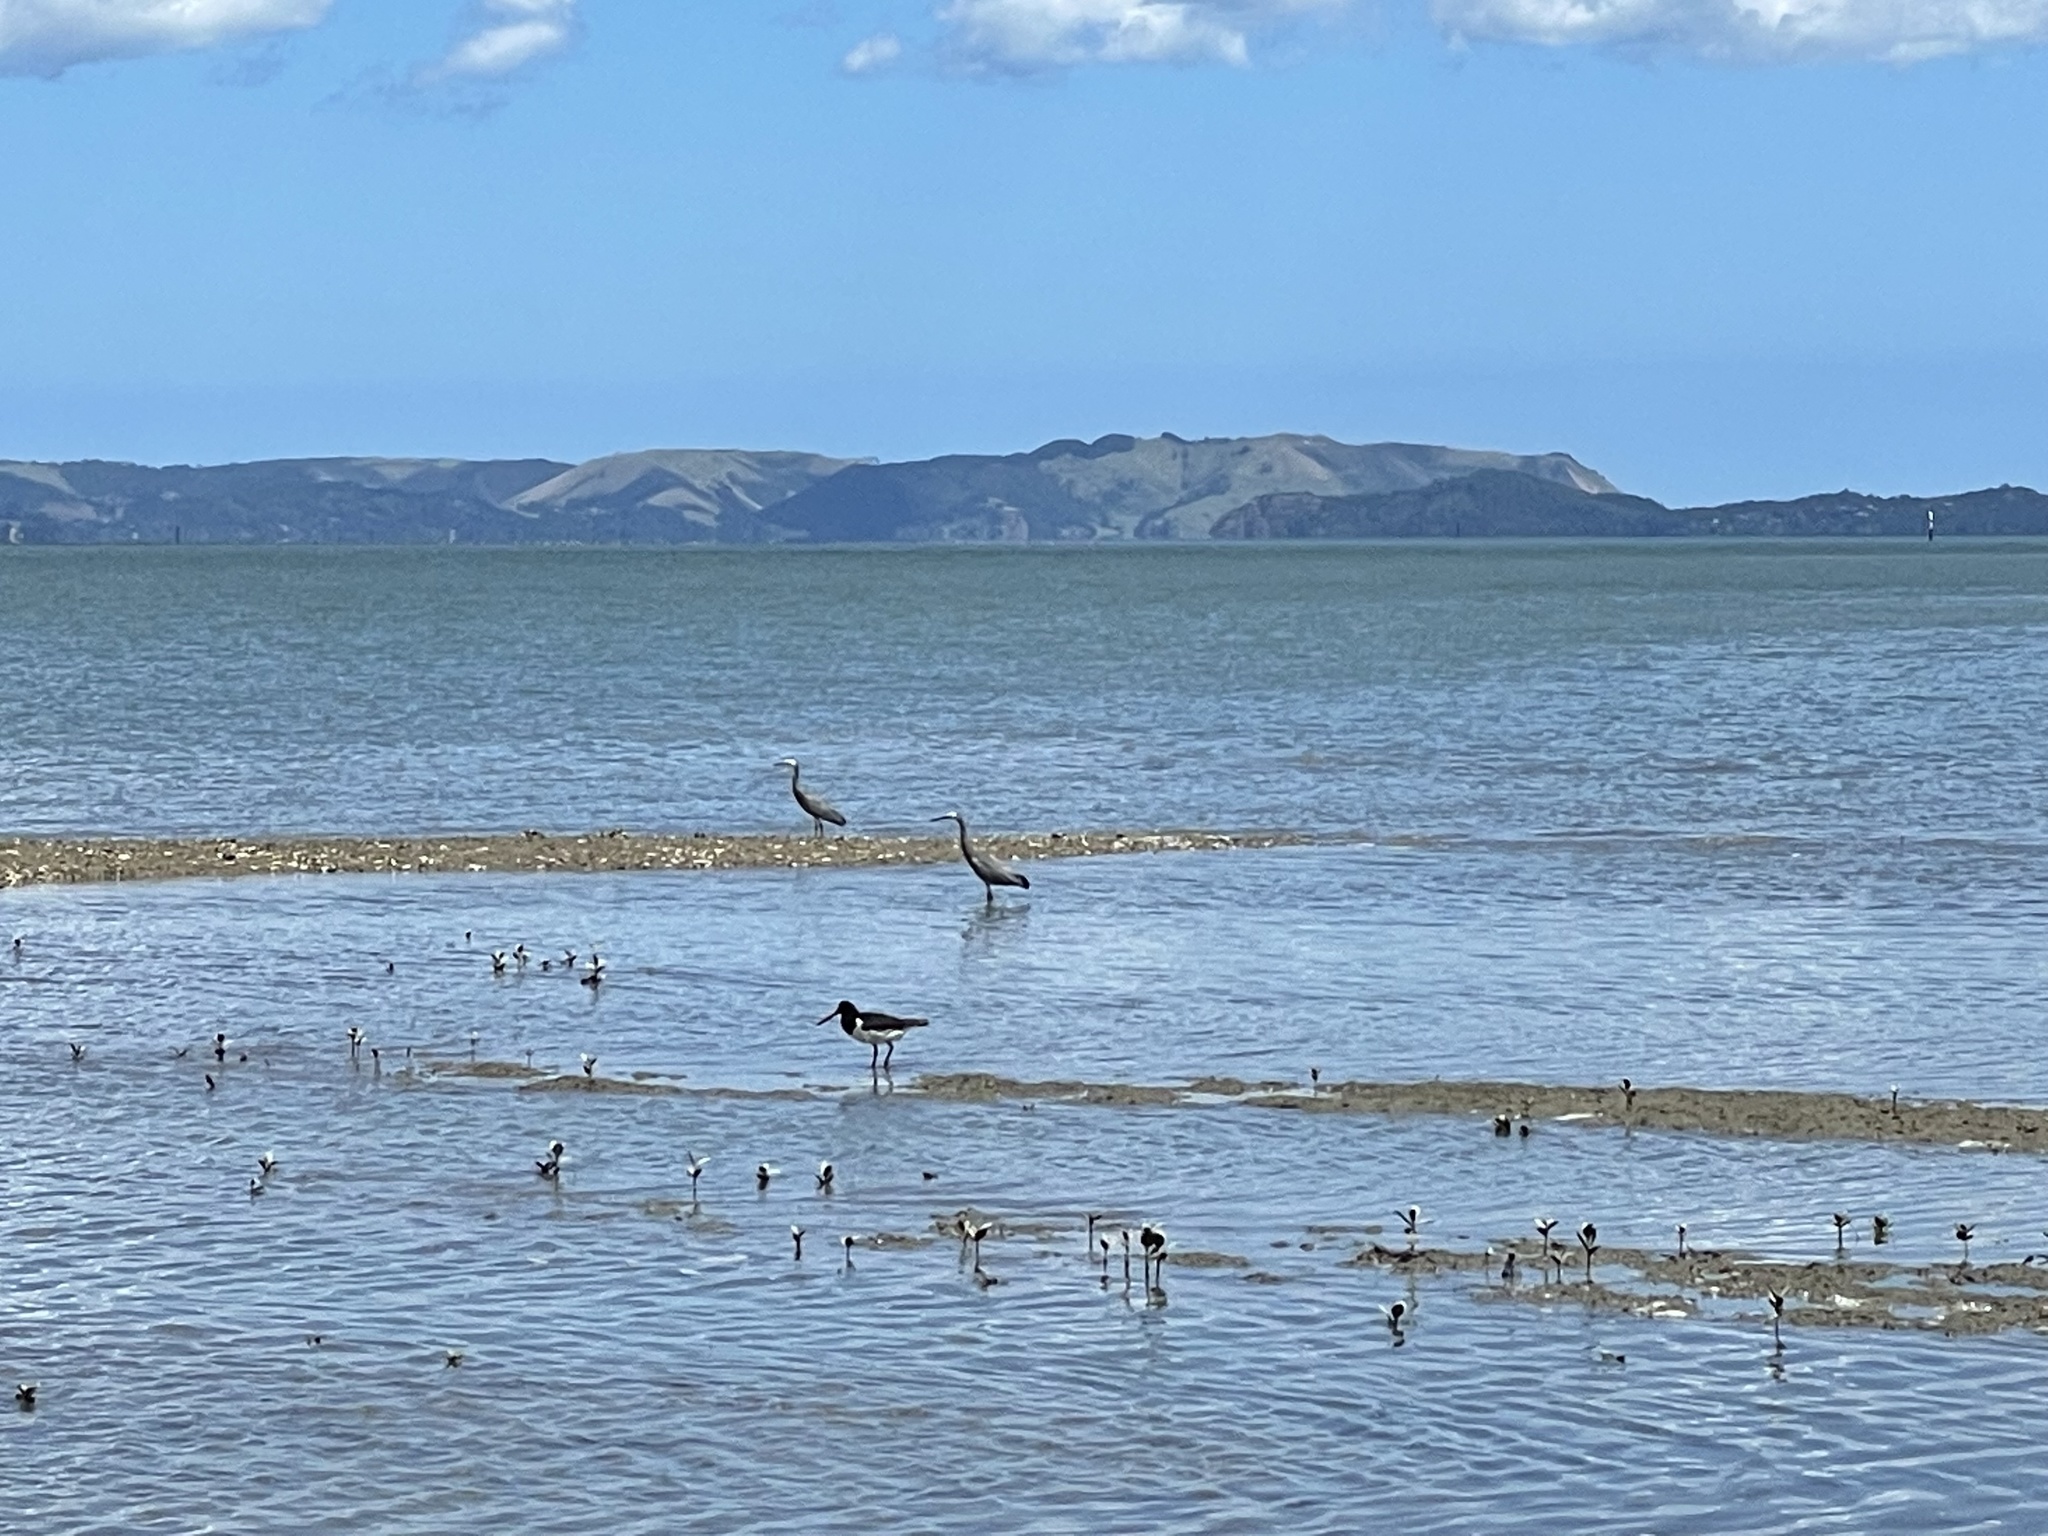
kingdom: Animalia
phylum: Chordata
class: Aves
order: Pelecaniformes
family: Ardeidae
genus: Egretta
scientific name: Egretta novaehollandiae
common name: White-faced heron
